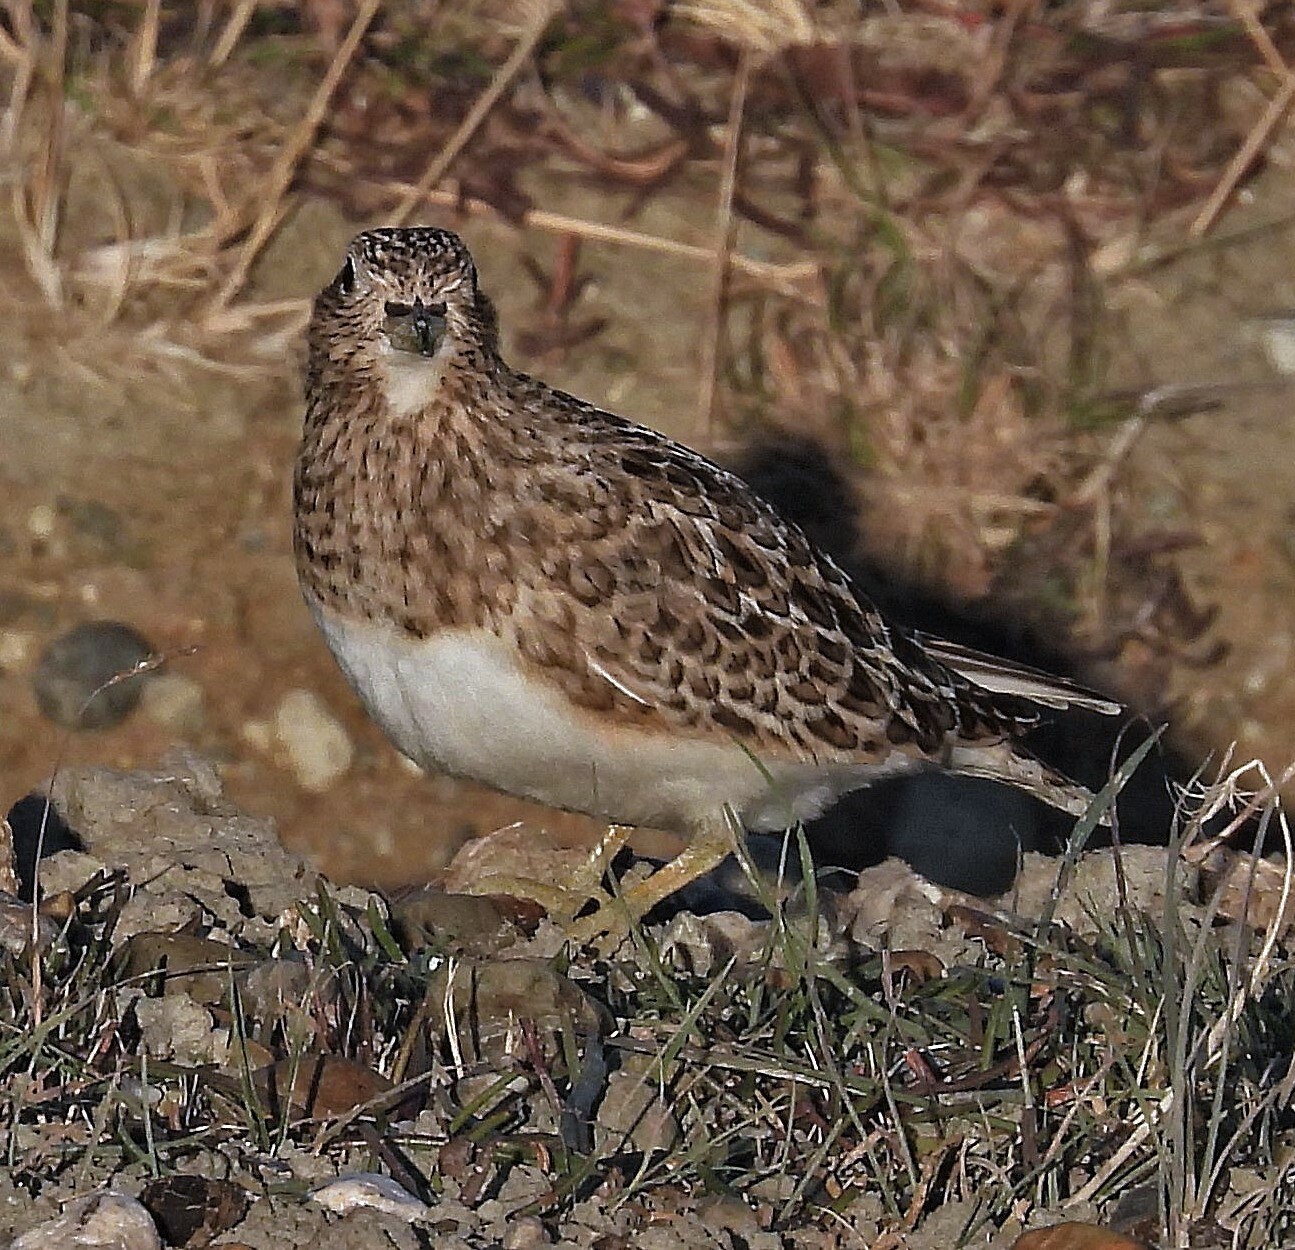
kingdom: Animalia
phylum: Chordata
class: Aves
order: Charadriiformes
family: Thinocoridae
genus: Thinocorus
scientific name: Thinocorus rumicivorus
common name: Least seedsnipe
